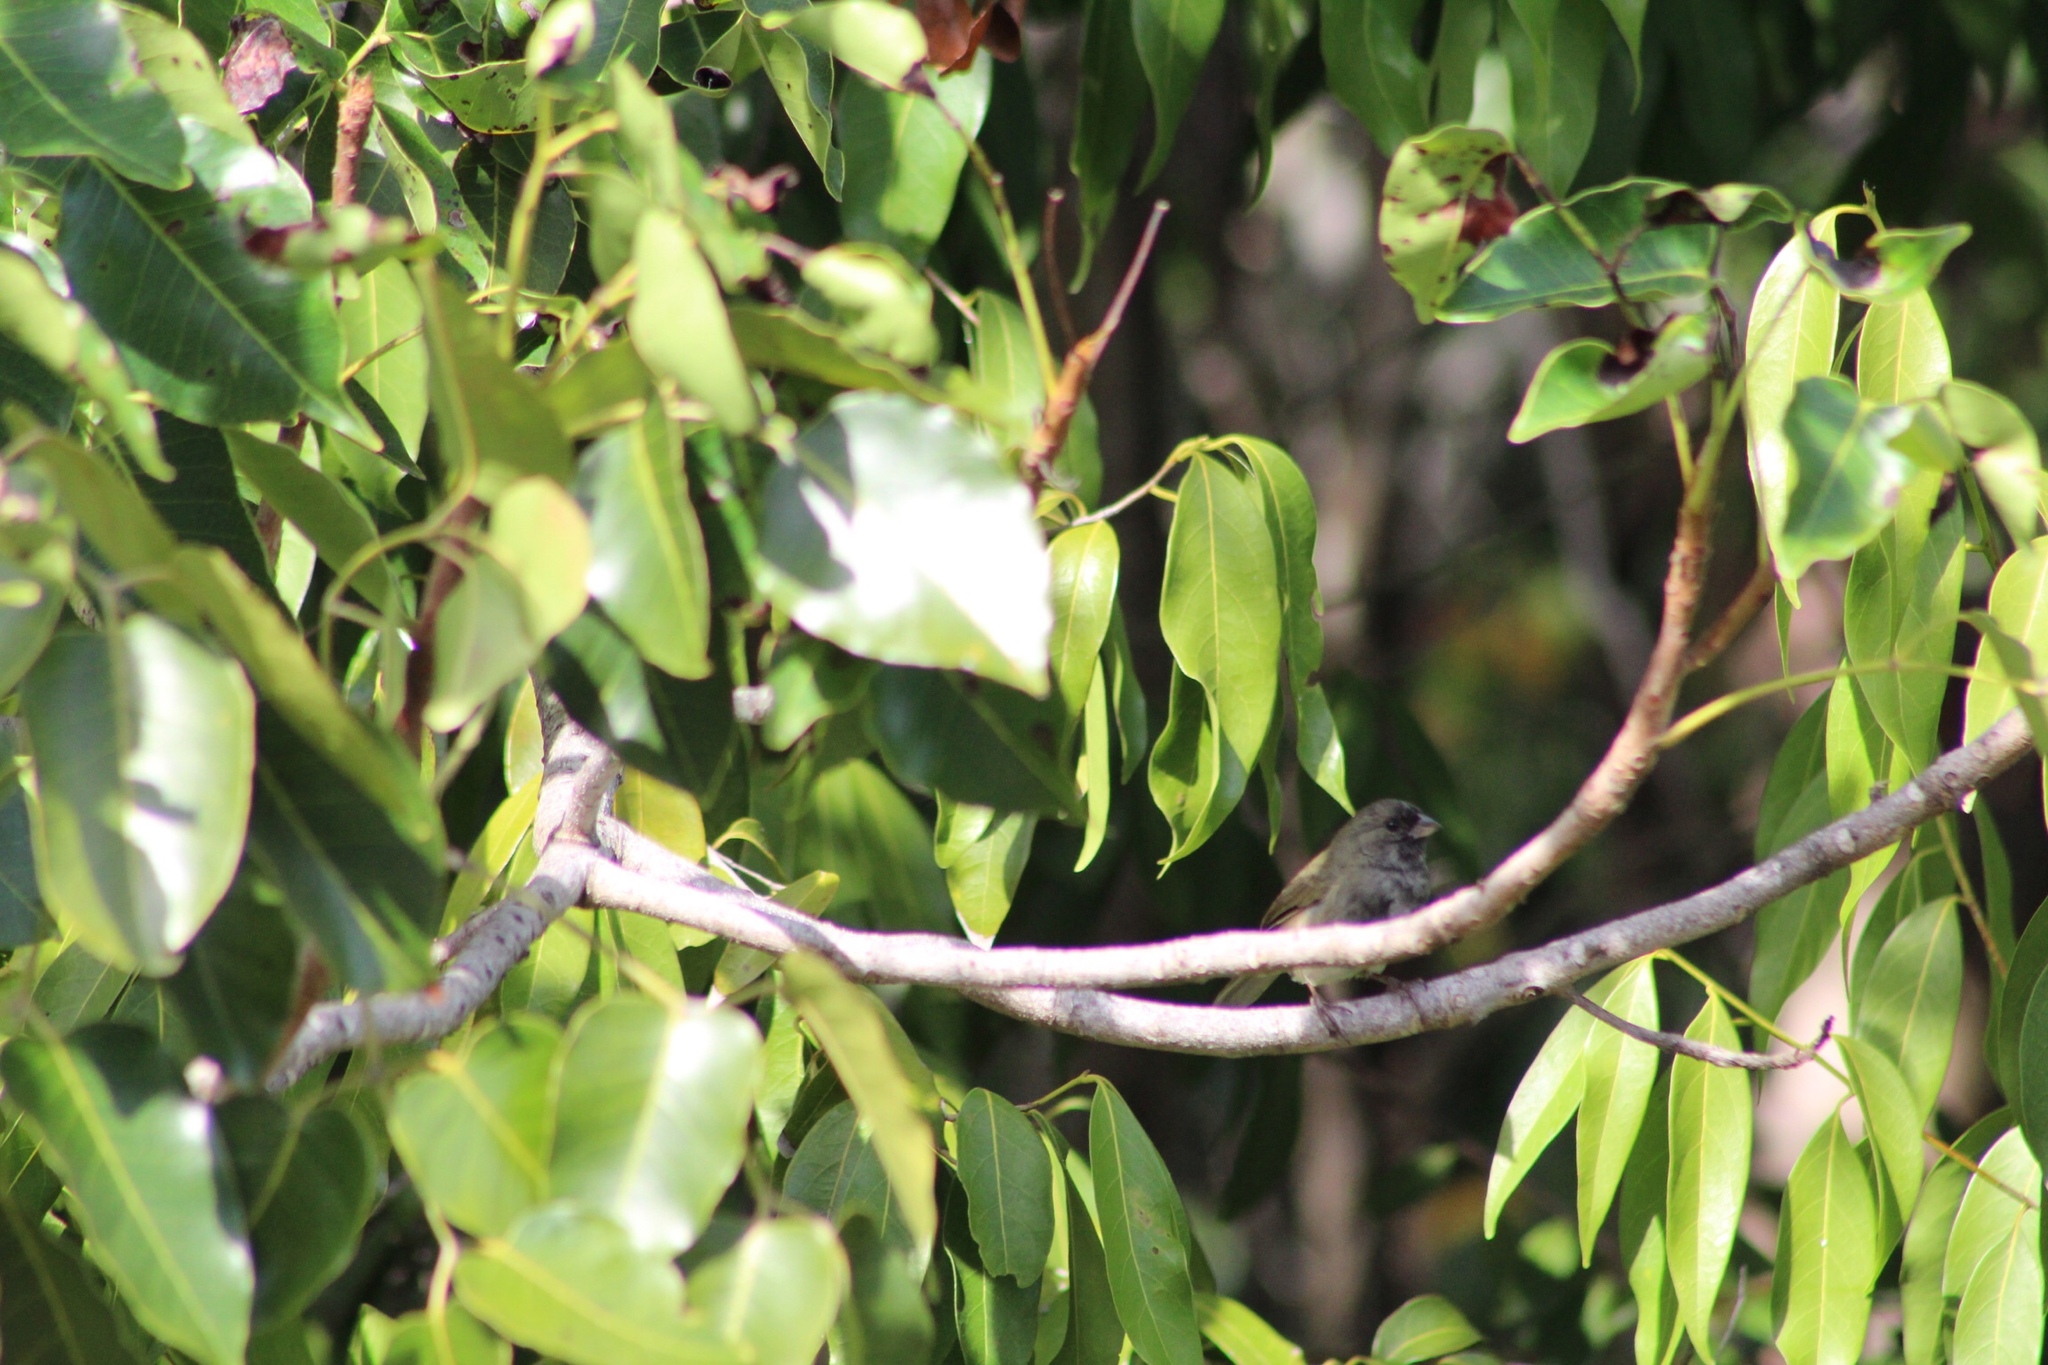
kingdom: Animalia
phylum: Chordata
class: Aves
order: Passeriformes
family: Thraupidae
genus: Melanospiza
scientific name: Melanospiza bicolor
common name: Black-faced grassquit
